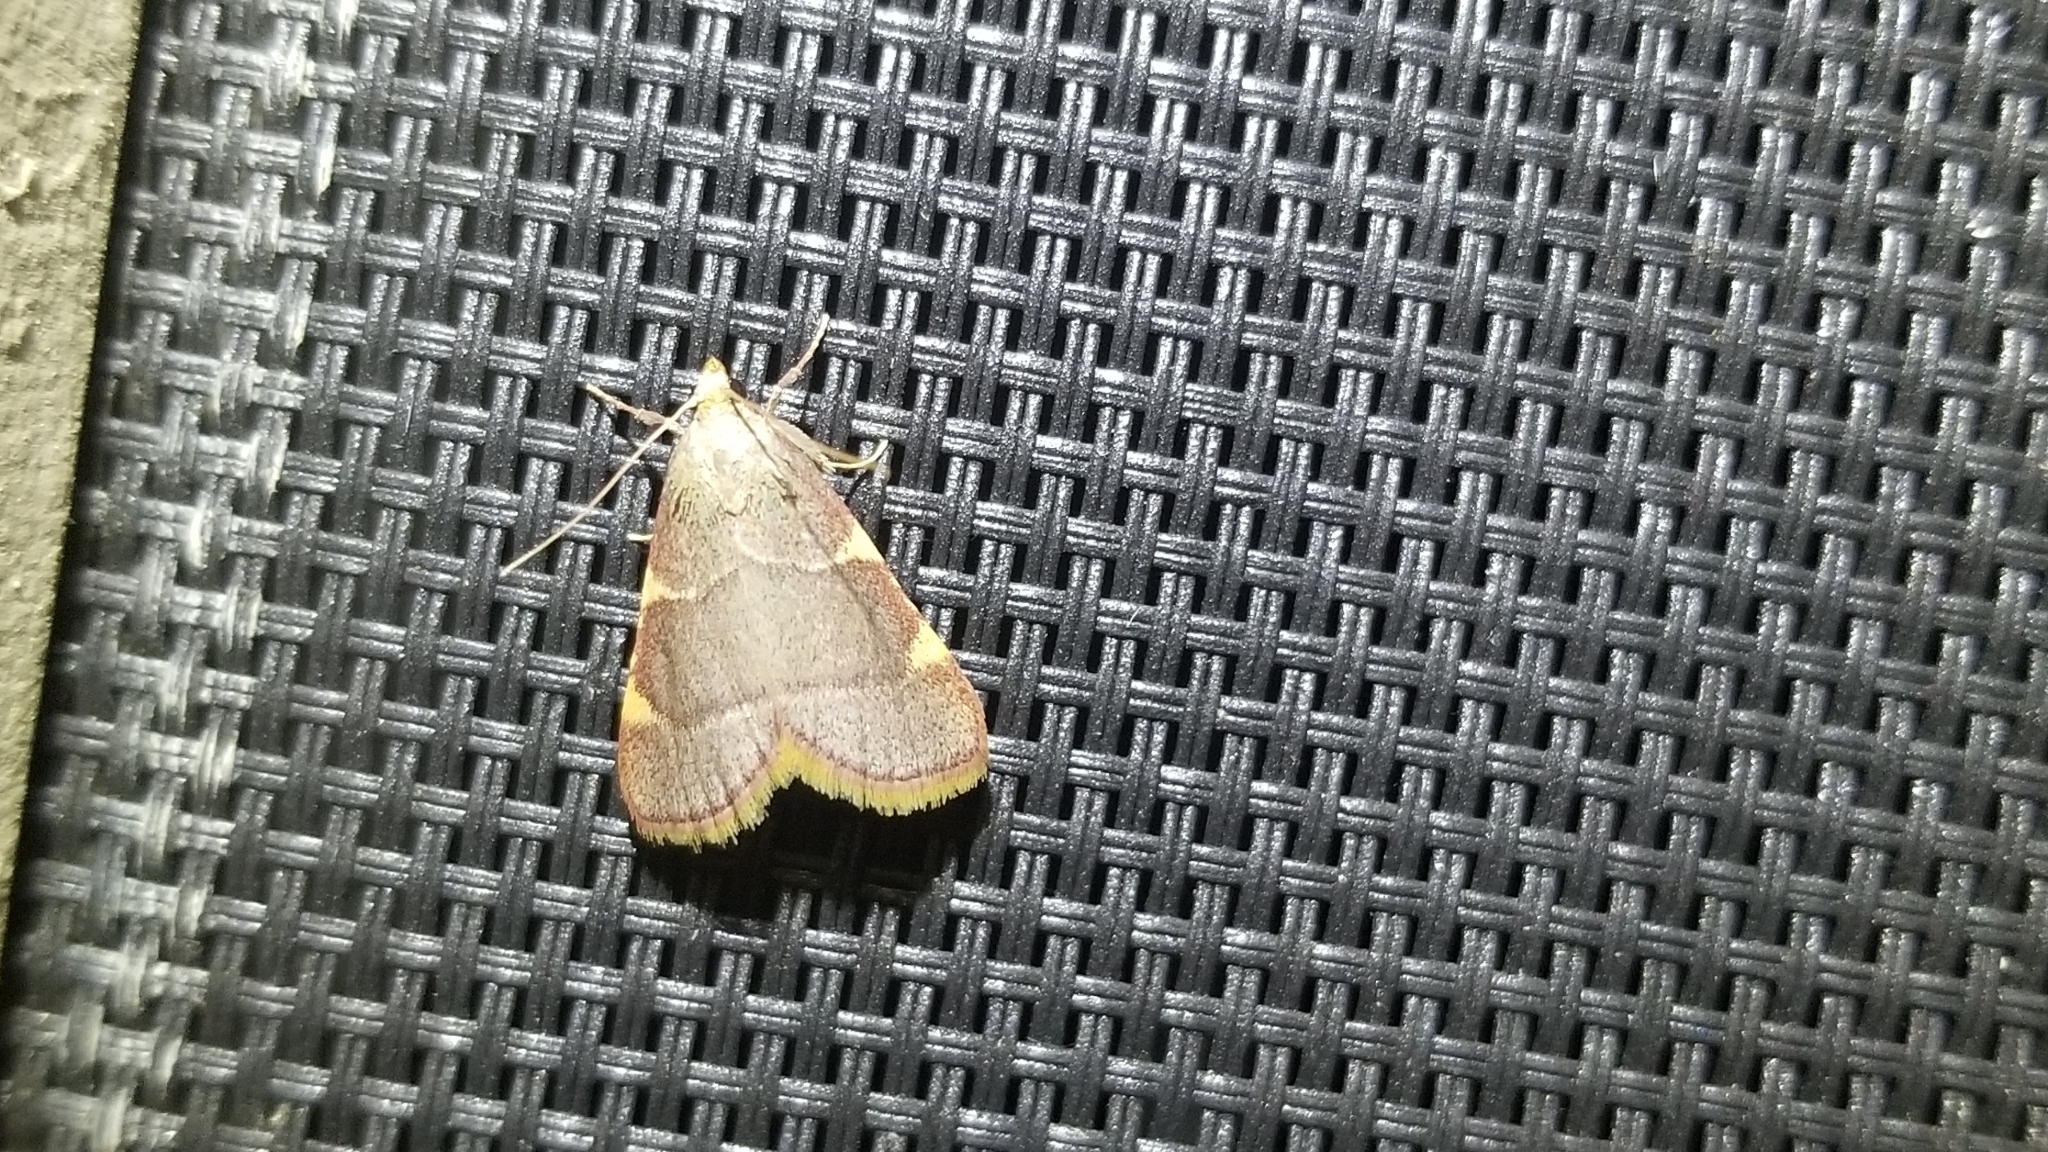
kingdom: Animalia
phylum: Arthropoda
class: Insecta
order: Lepidoptera
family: Pyralidae
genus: Hypsopygia
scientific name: Hypsopygia olinalis
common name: Yellow-fringed dolichomia moth
